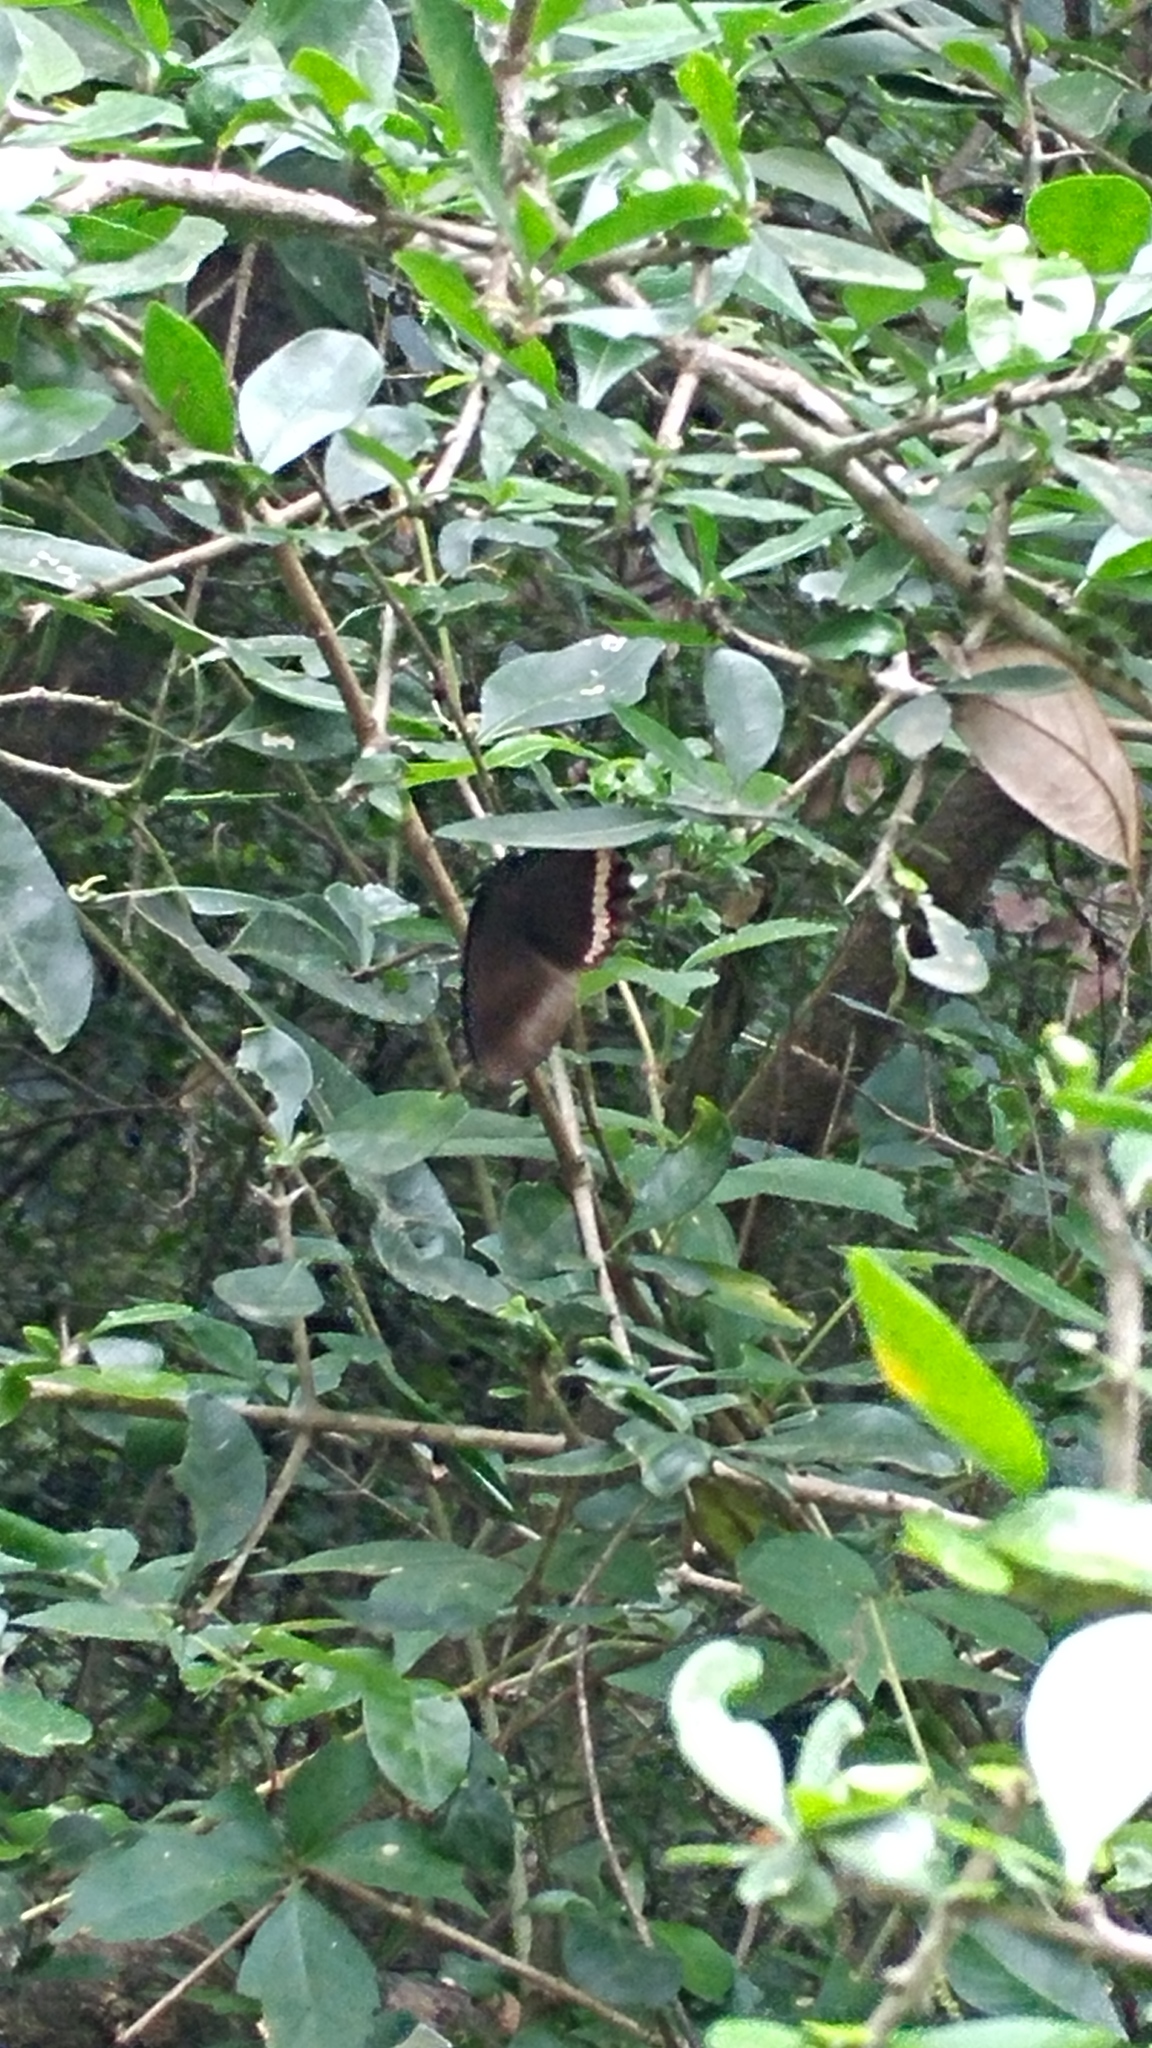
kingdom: Animalia
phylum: Arthropoda
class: Insecta
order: Lepidoptera
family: Nymphalidae
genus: Biblis
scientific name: Biblis aganisa
